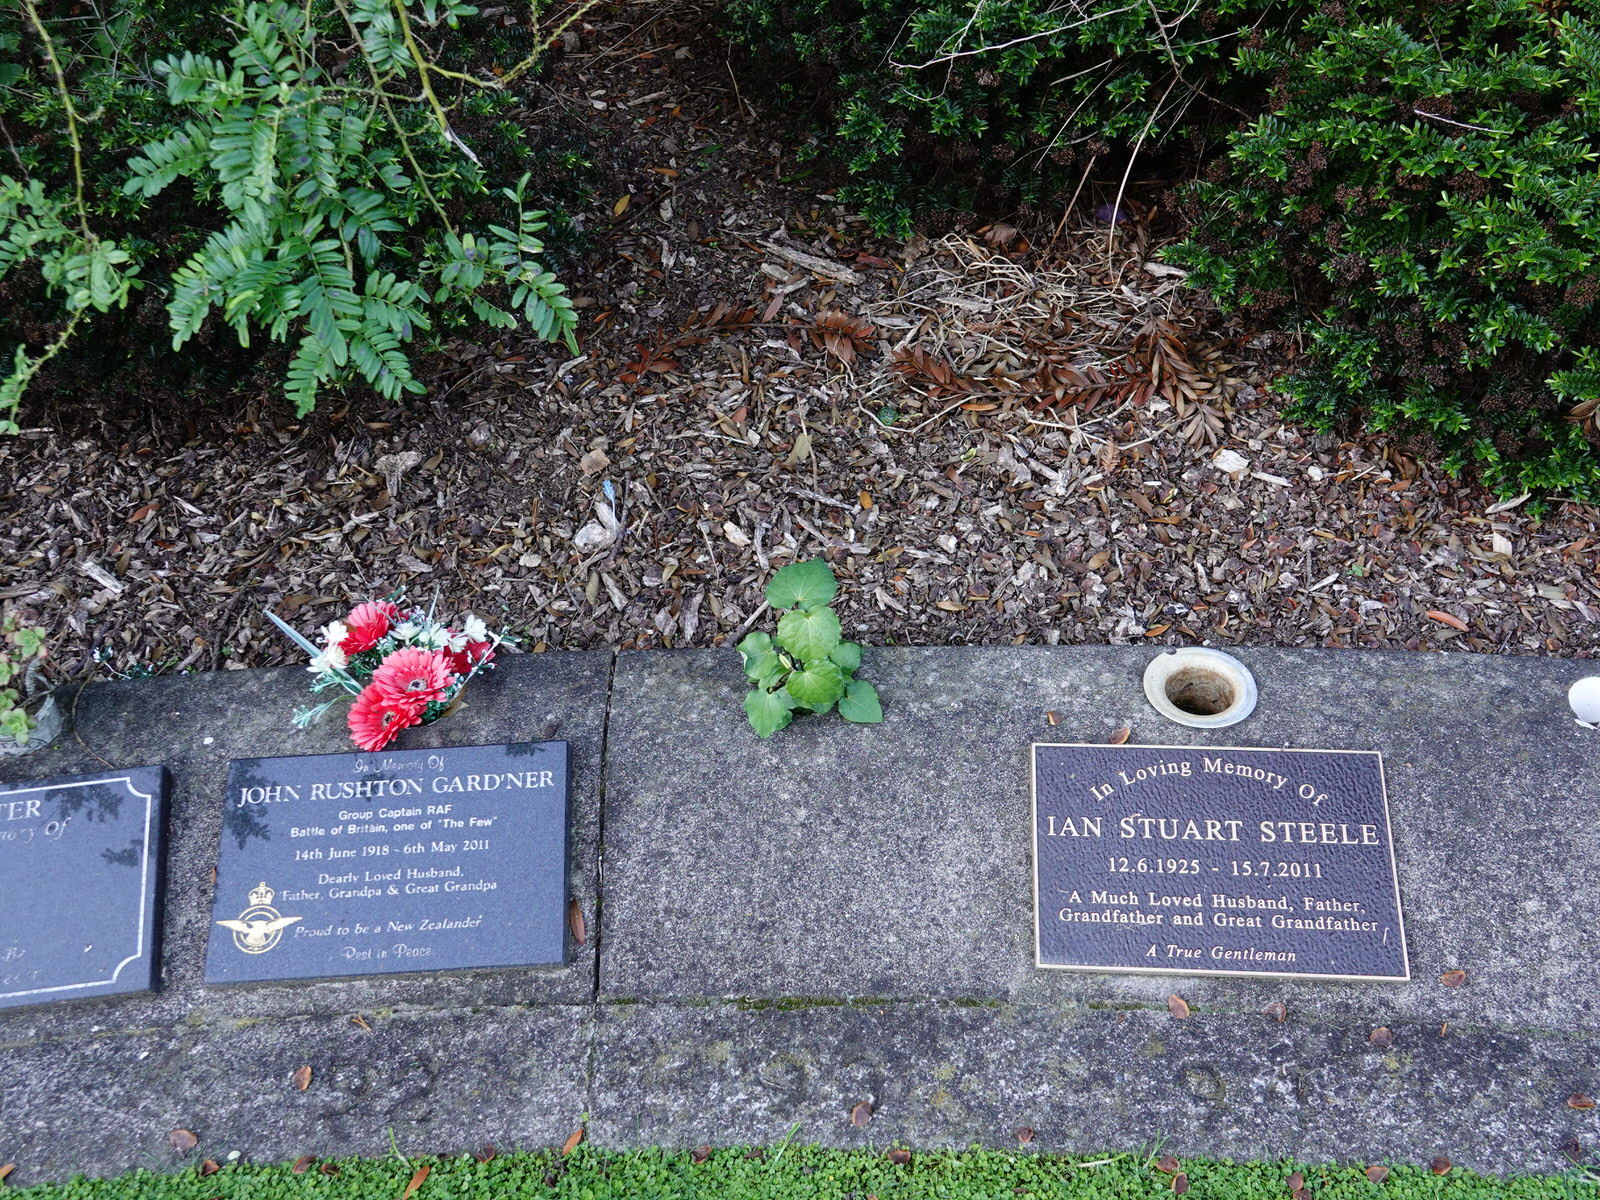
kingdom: Plantae
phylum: Tracheophyta
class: Magnoliopsida
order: Piperales
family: Piperaceae
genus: Macropiper
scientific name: Macropiper excelsum
